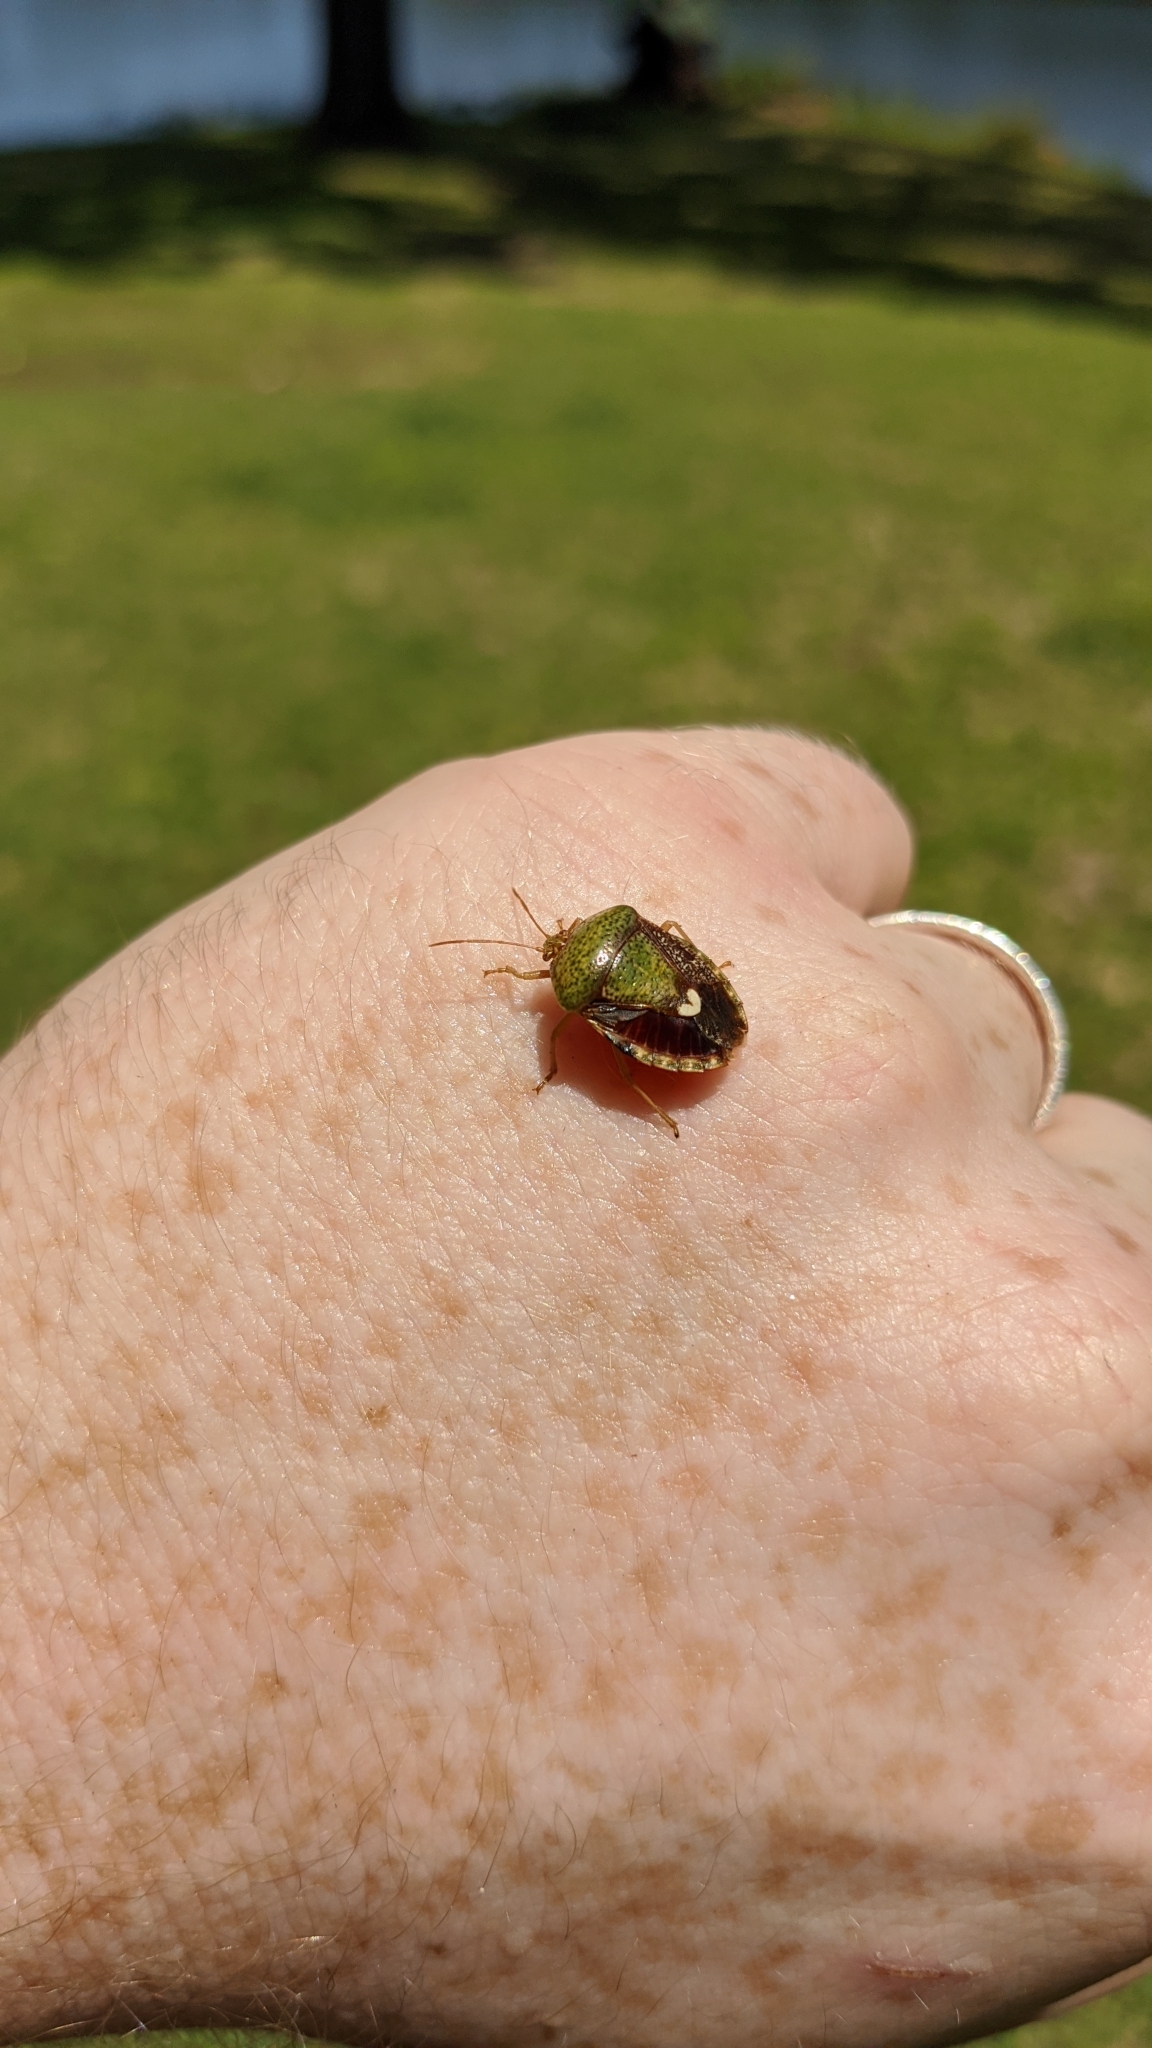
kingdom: Animalia
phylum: Arthropoda
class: Insecta
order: Hemiptera
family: Pentatomidae
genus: Edessa
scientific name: Edessa bifida
